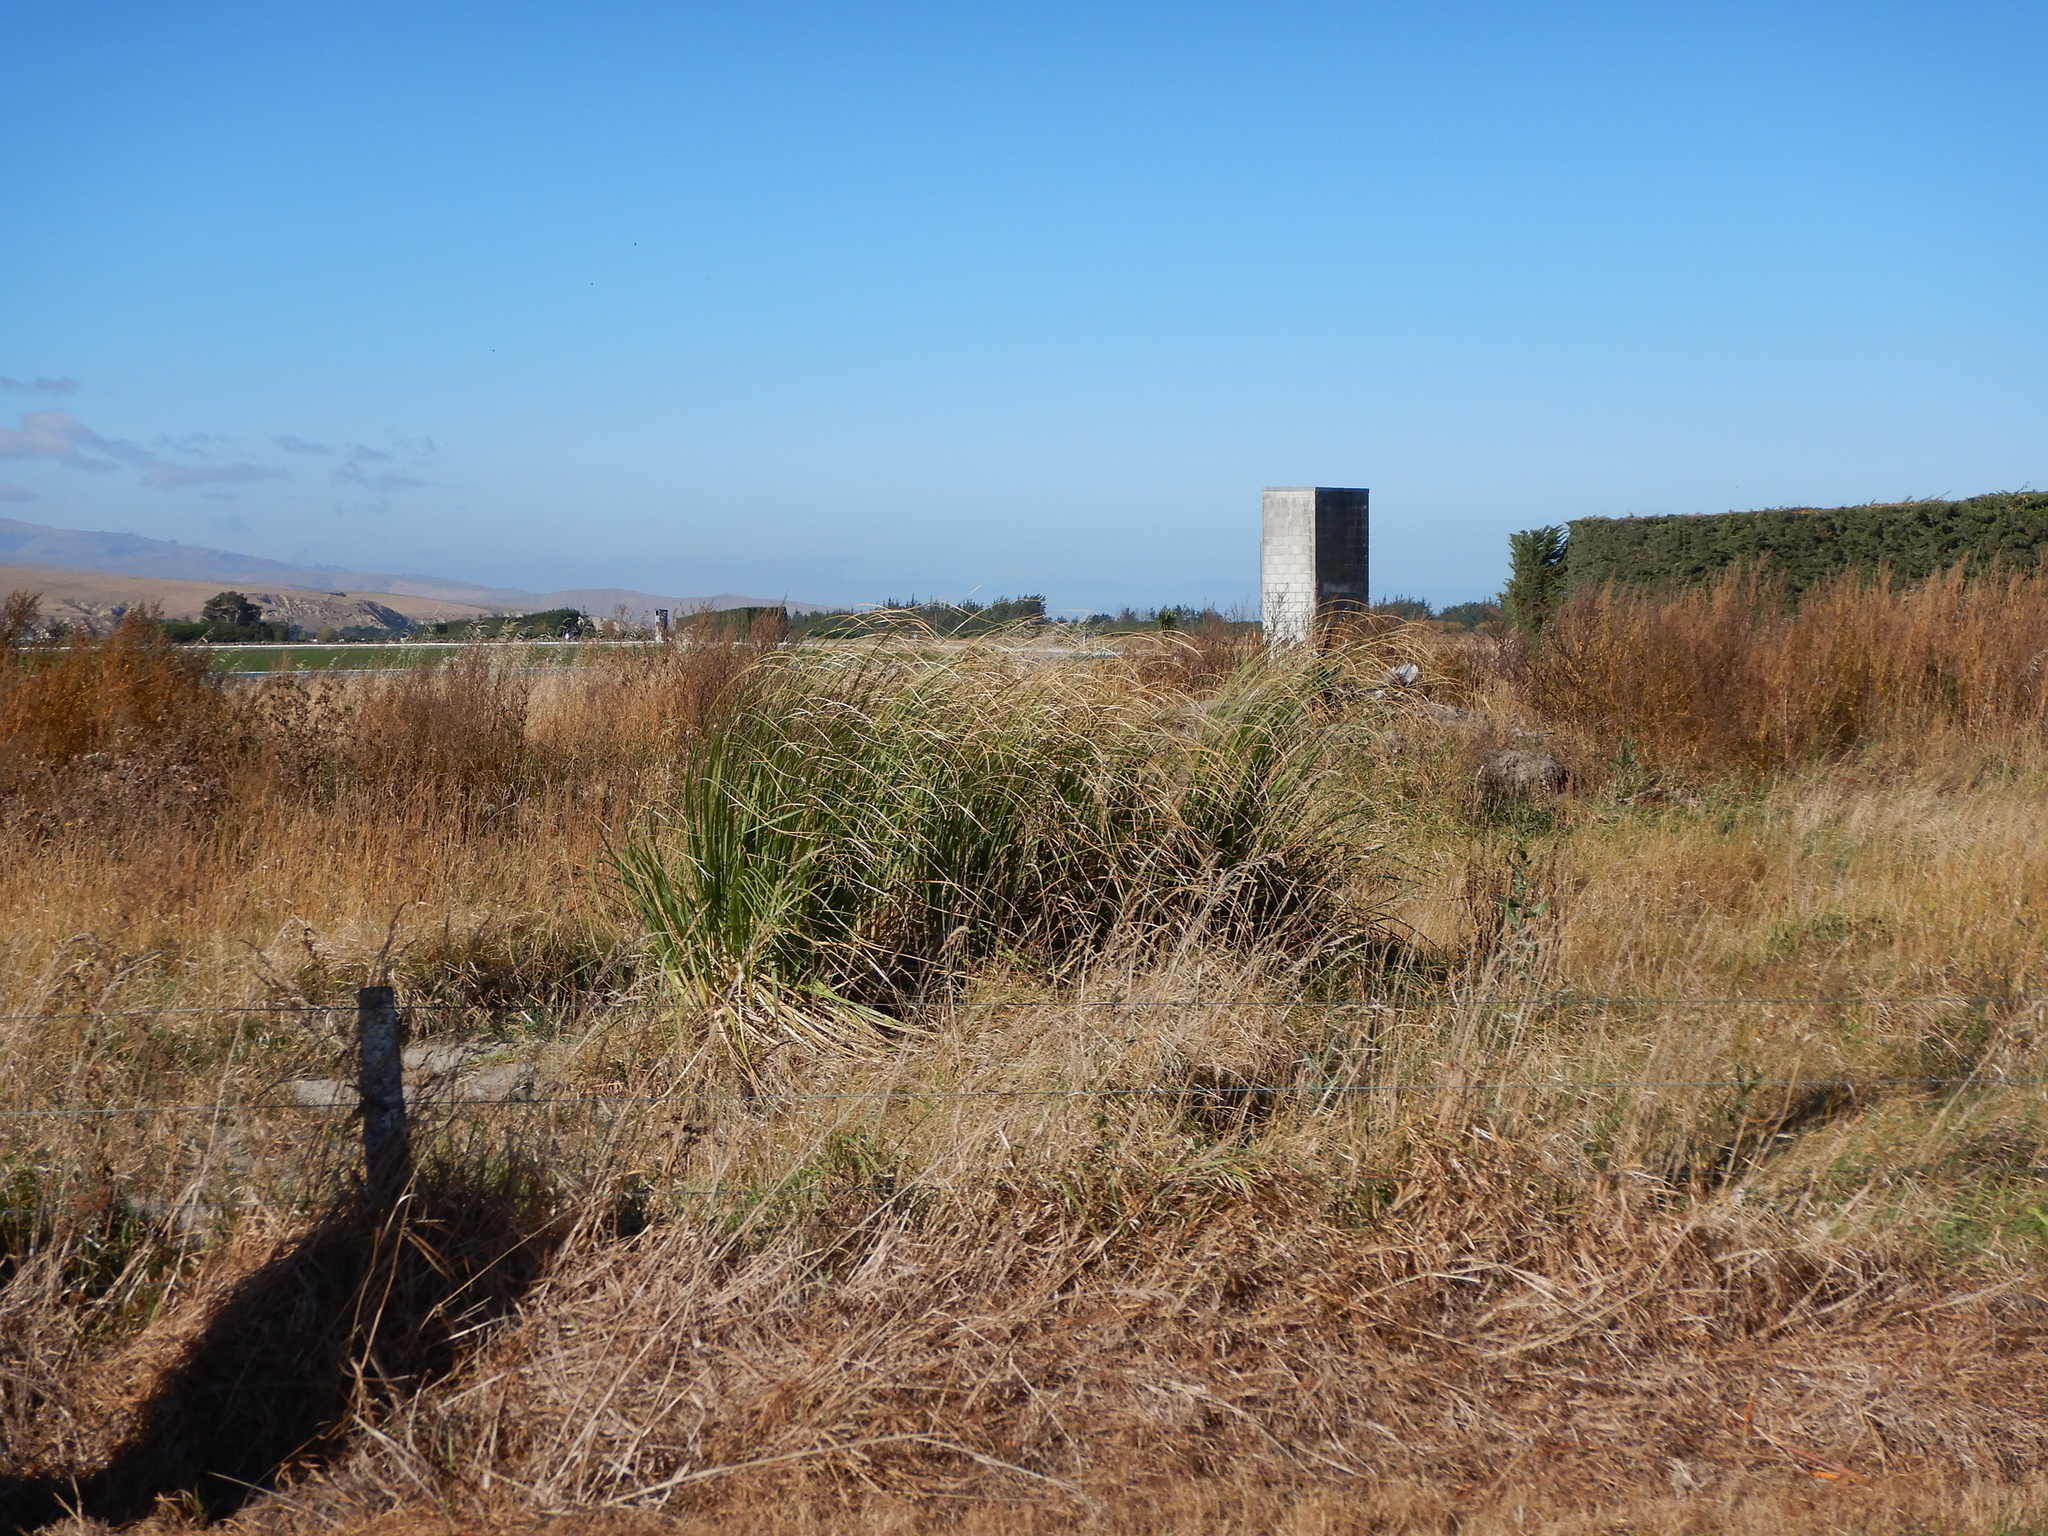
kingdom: Plantae
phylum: Tracheophyta
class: Liliopsida
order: Poales
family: Poaceae
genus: Cortaderia
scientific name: Cortaderia selloana
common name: Uruguayan pampas grass
